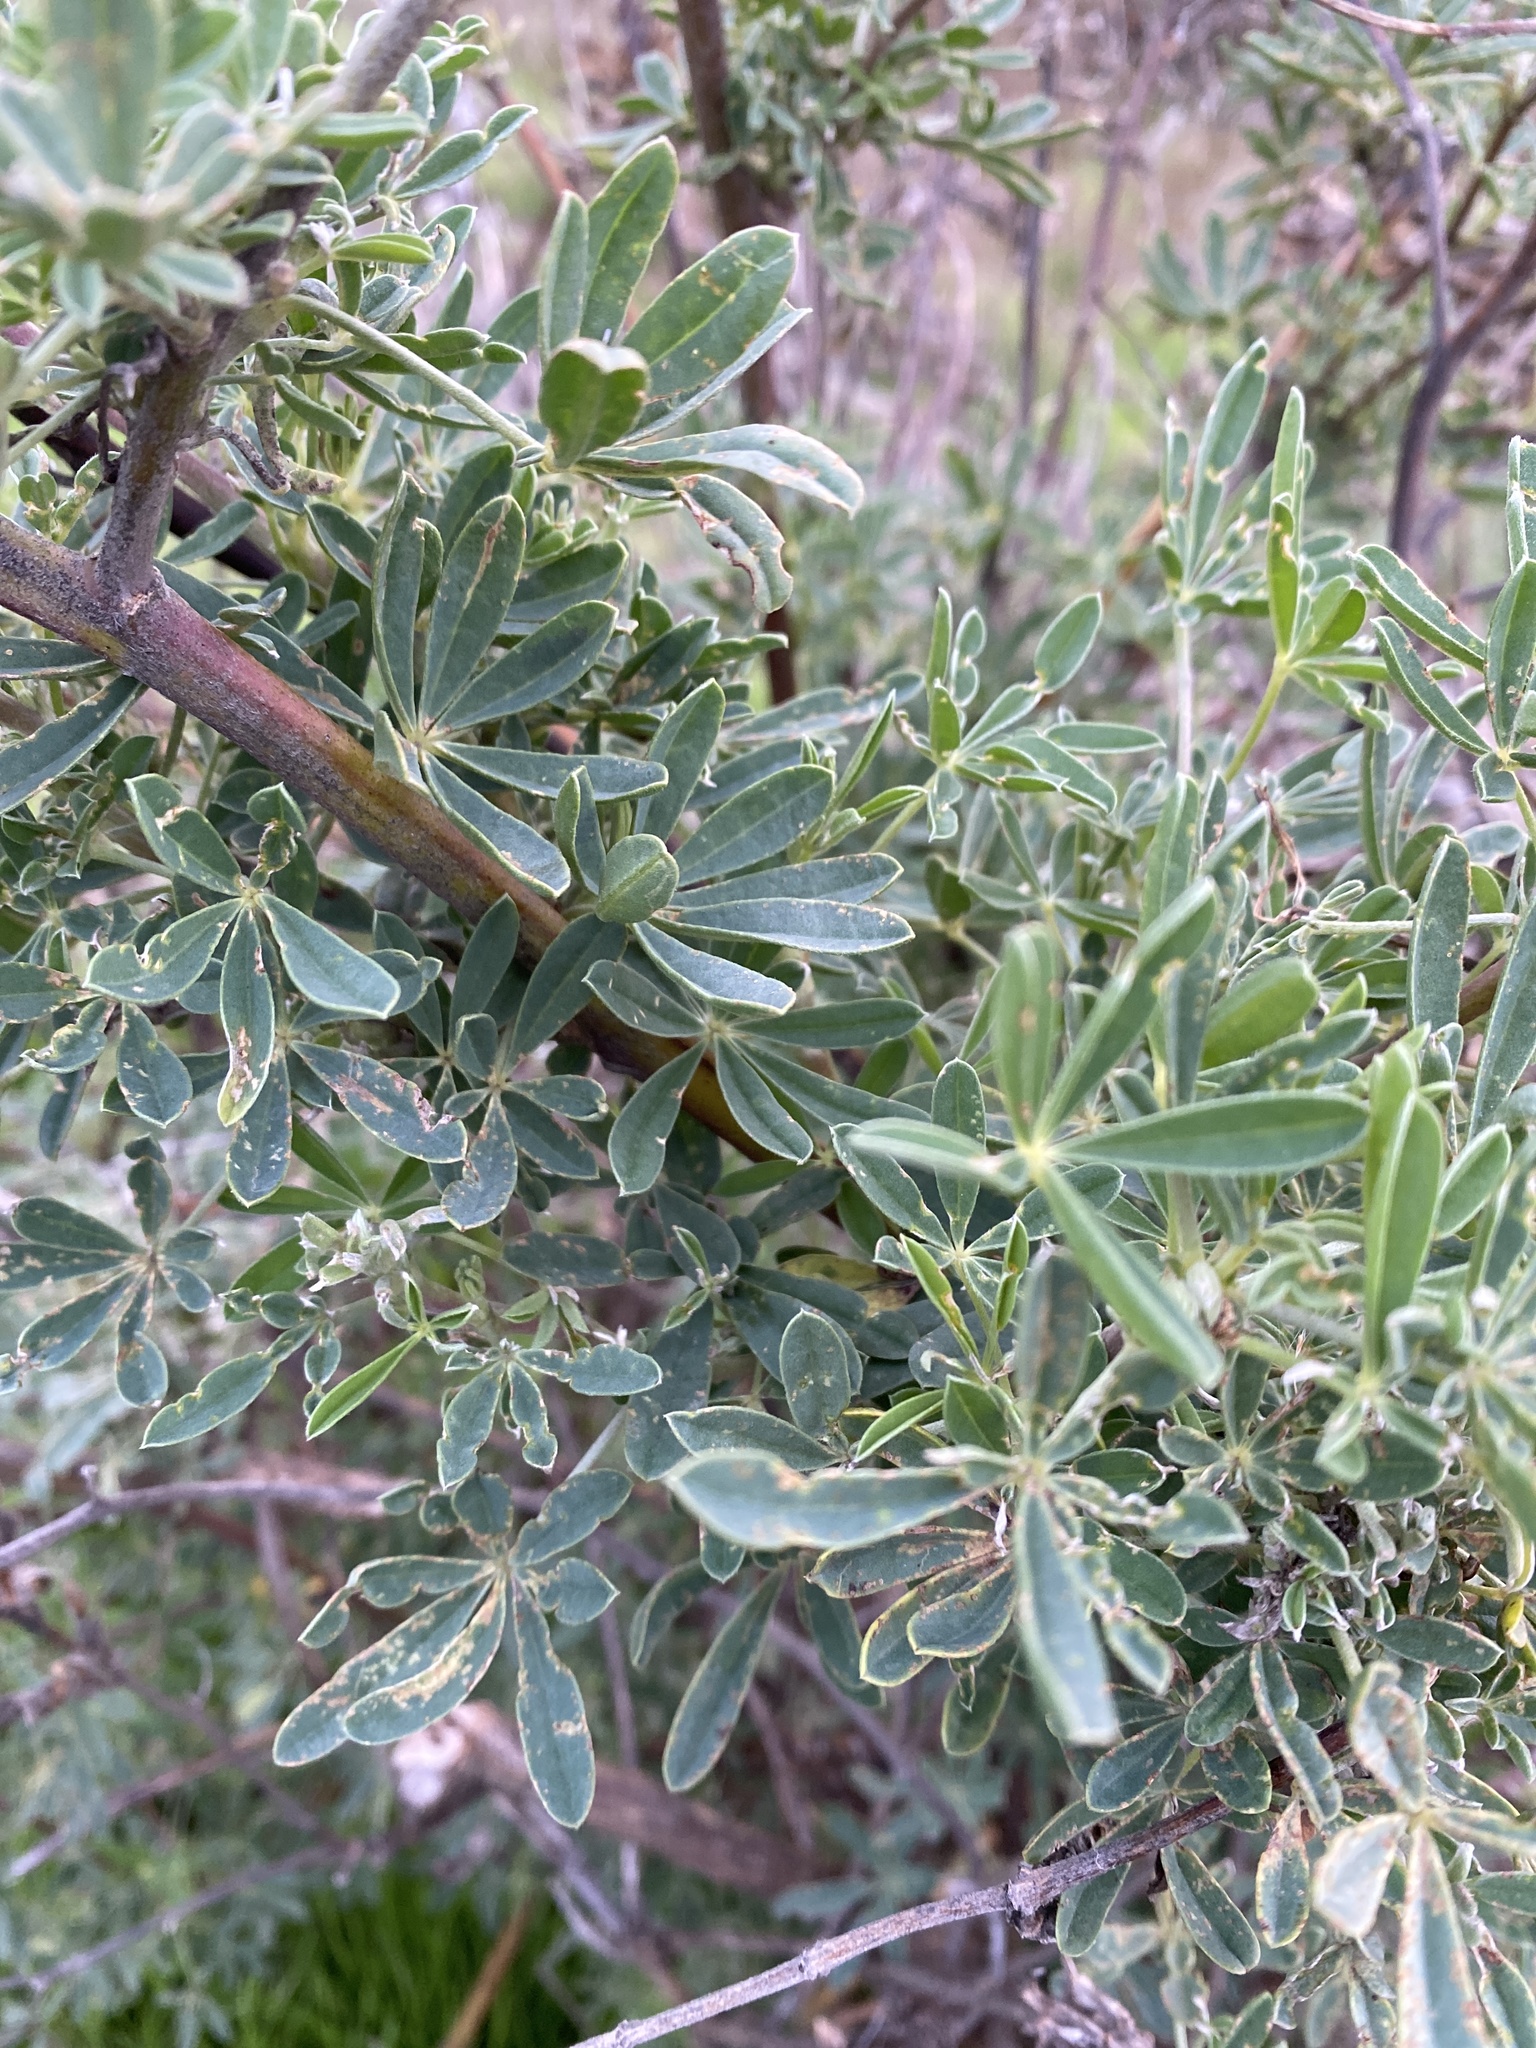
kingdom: Plantae
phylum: Tracheophyta
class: Magnoliopsida
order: Fabales
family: Fabaceae
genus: Lupinus
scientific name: Lupinus arboreus
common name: Yellow bush lupine
